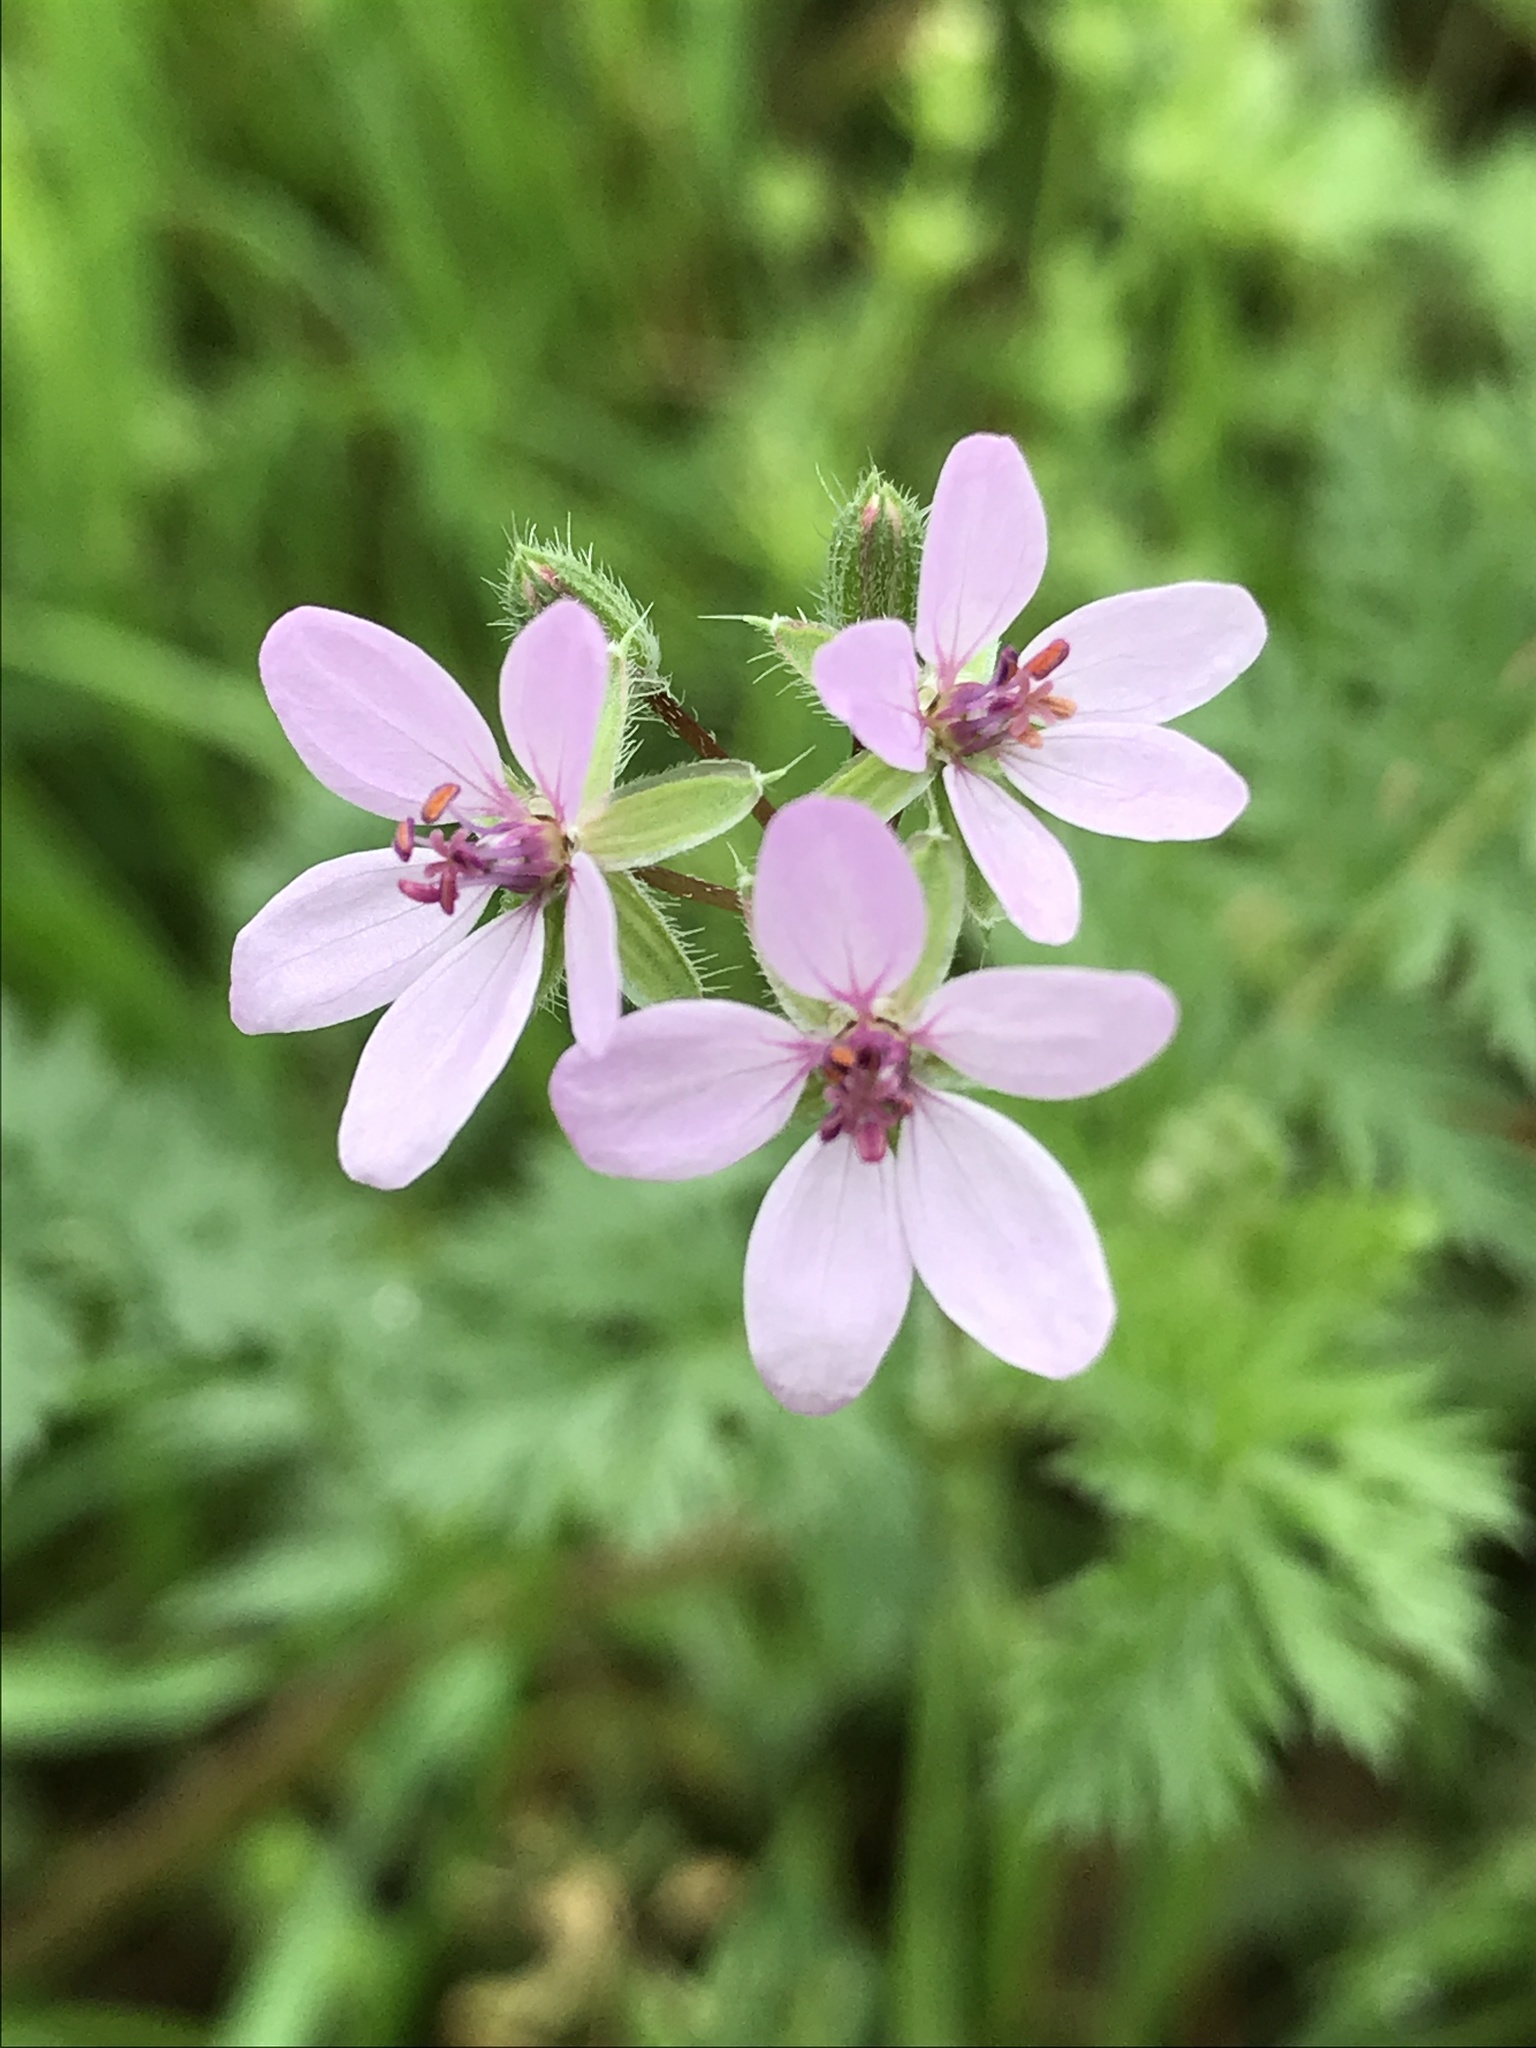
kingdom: Plantae
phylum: Tracheophyta
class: Magnoliopsida
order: Geraniales
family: Geraniaceae
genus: Erodium
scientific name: Erodium cicutarium
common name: Common stork's-bill
